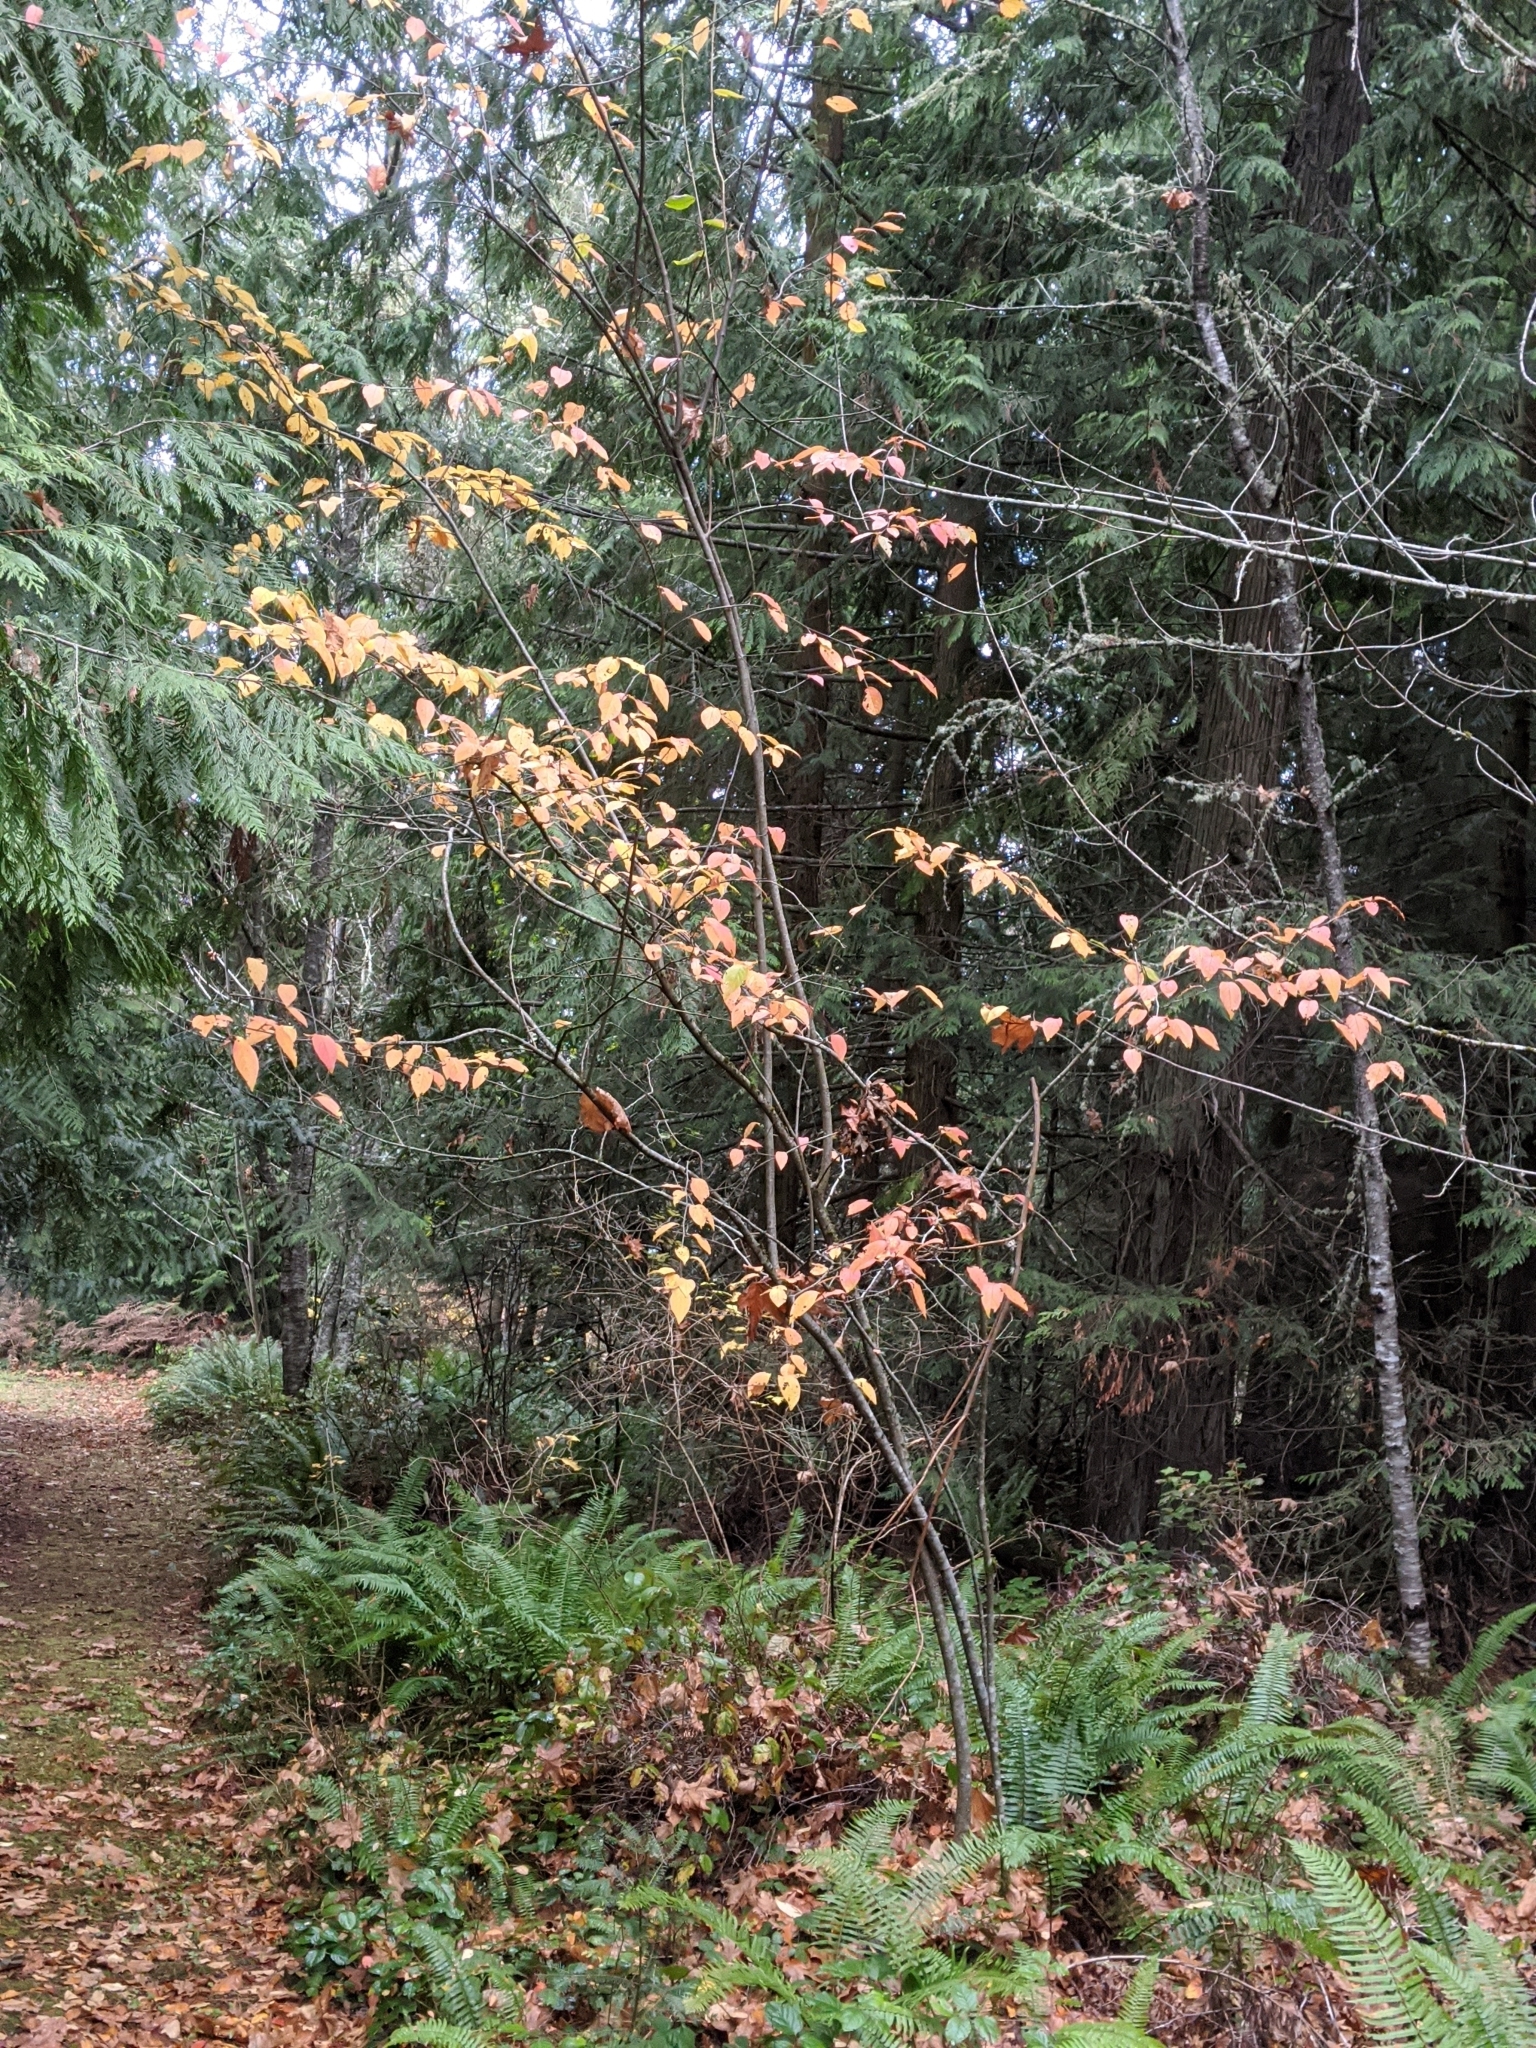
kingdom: Plantae
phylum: Tracheophyta
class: Magnoliopsida
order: Rosales
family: Rosaceae
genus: Cotoneaster
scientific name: Cotoneaster bullatus
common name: Hollyberry cotoneaster
